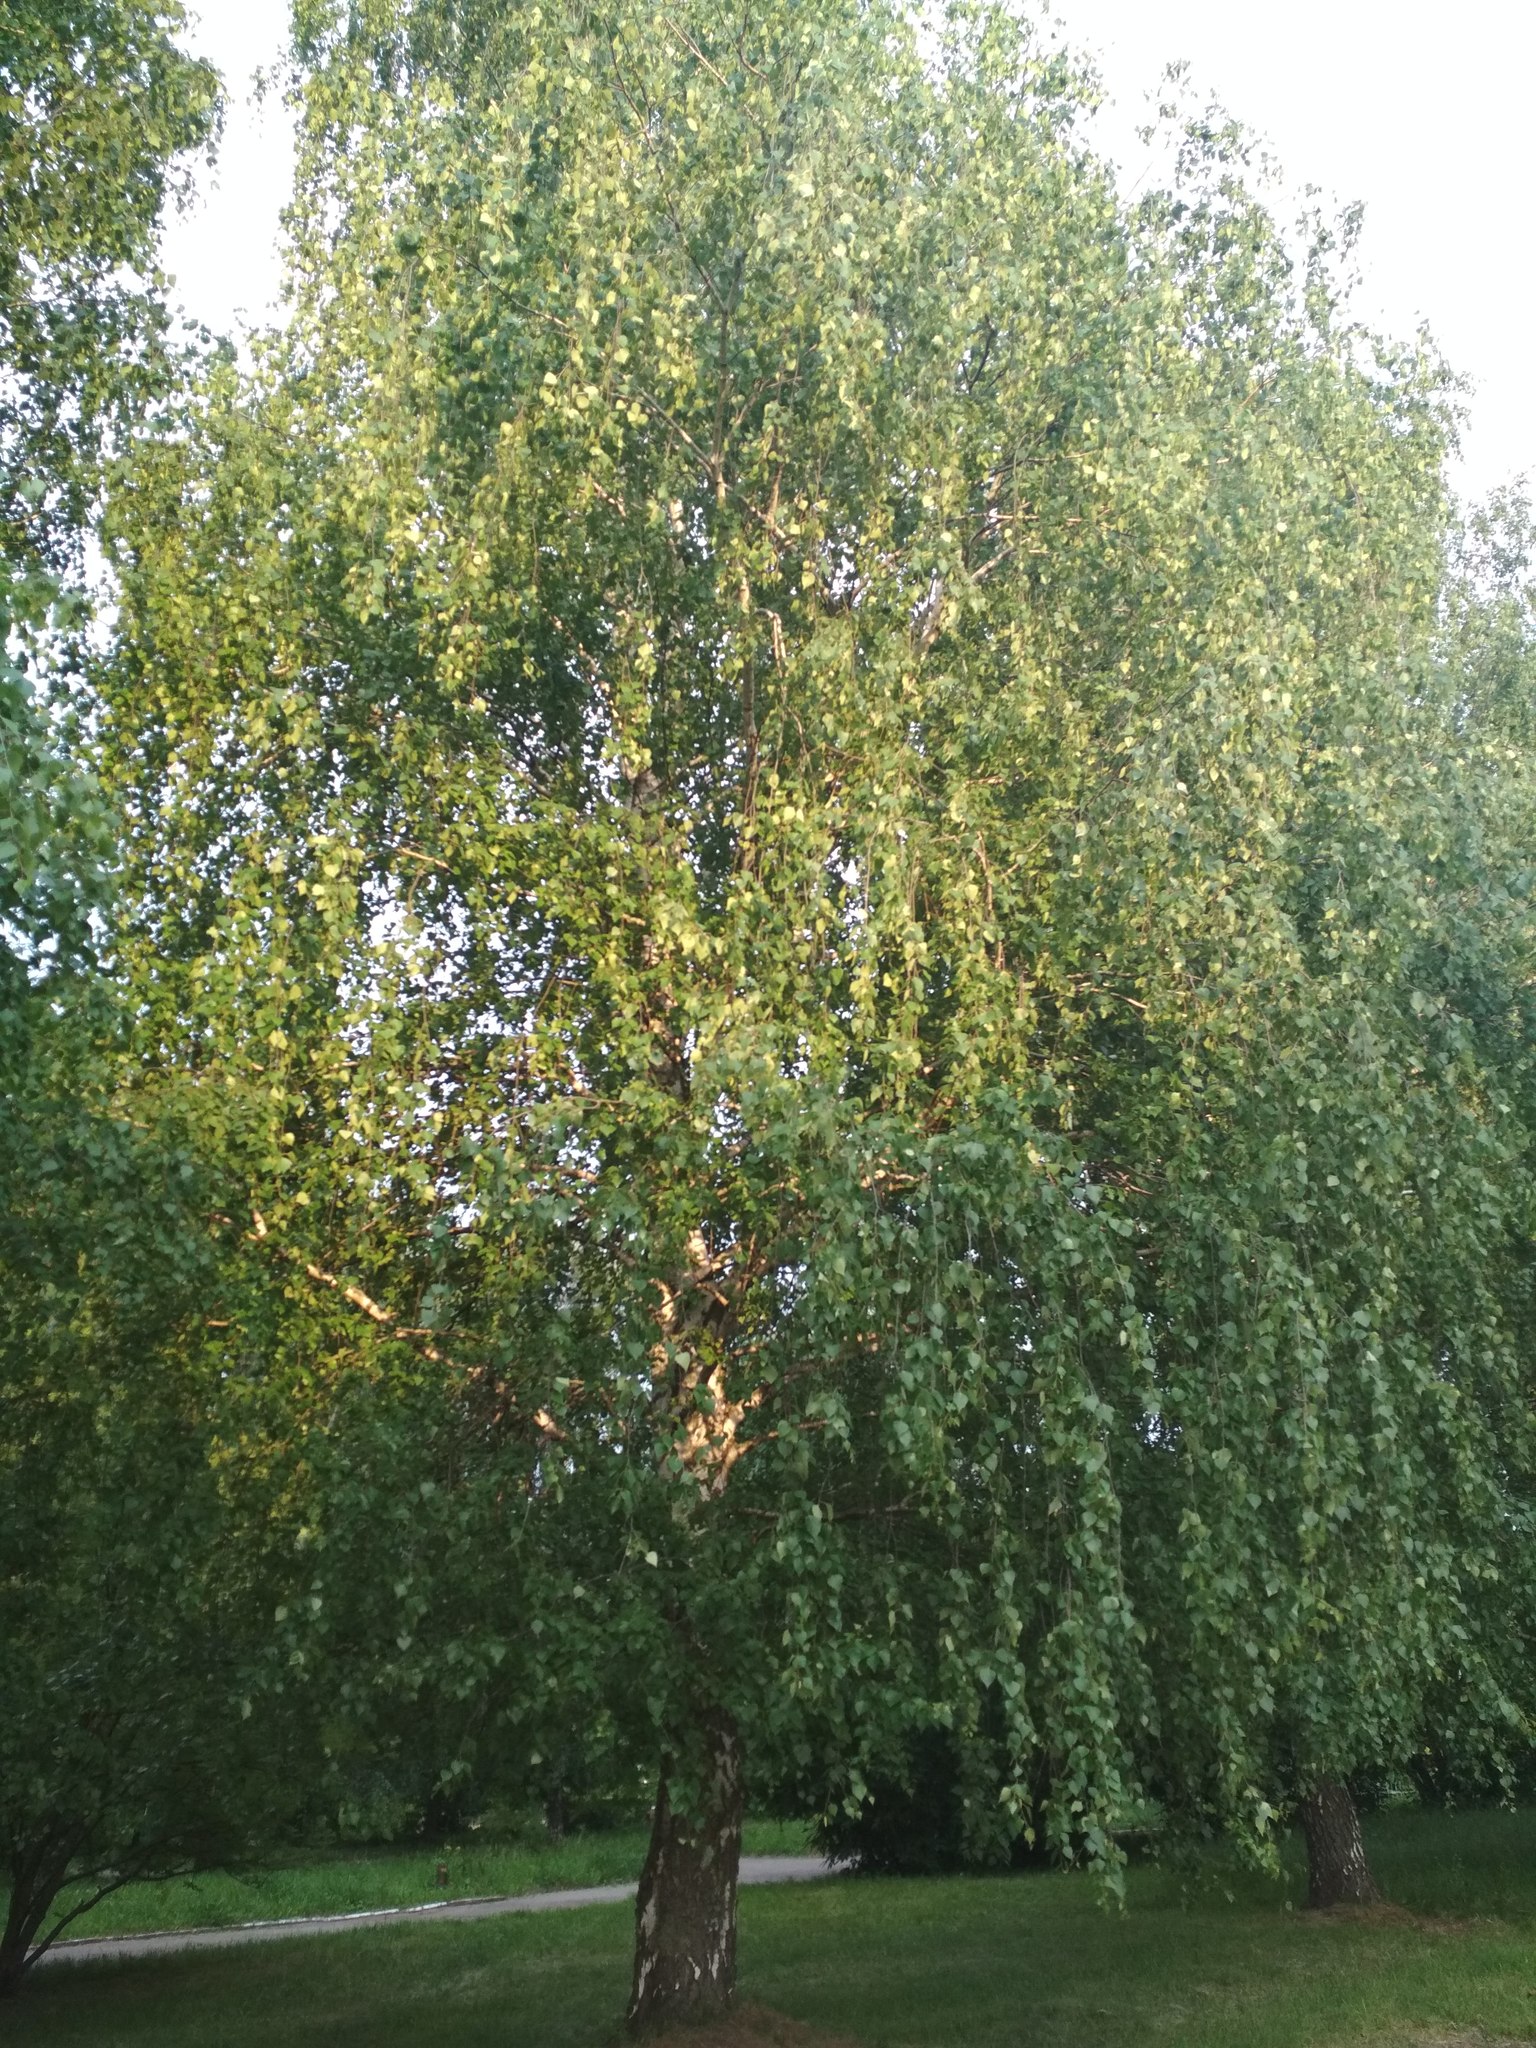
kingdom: Plantae
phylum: Tracheophyta
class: Magnoliopsida
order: Fagales
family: Betulaceae
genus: Betula
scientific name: Betula pendula
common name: Silver birch
